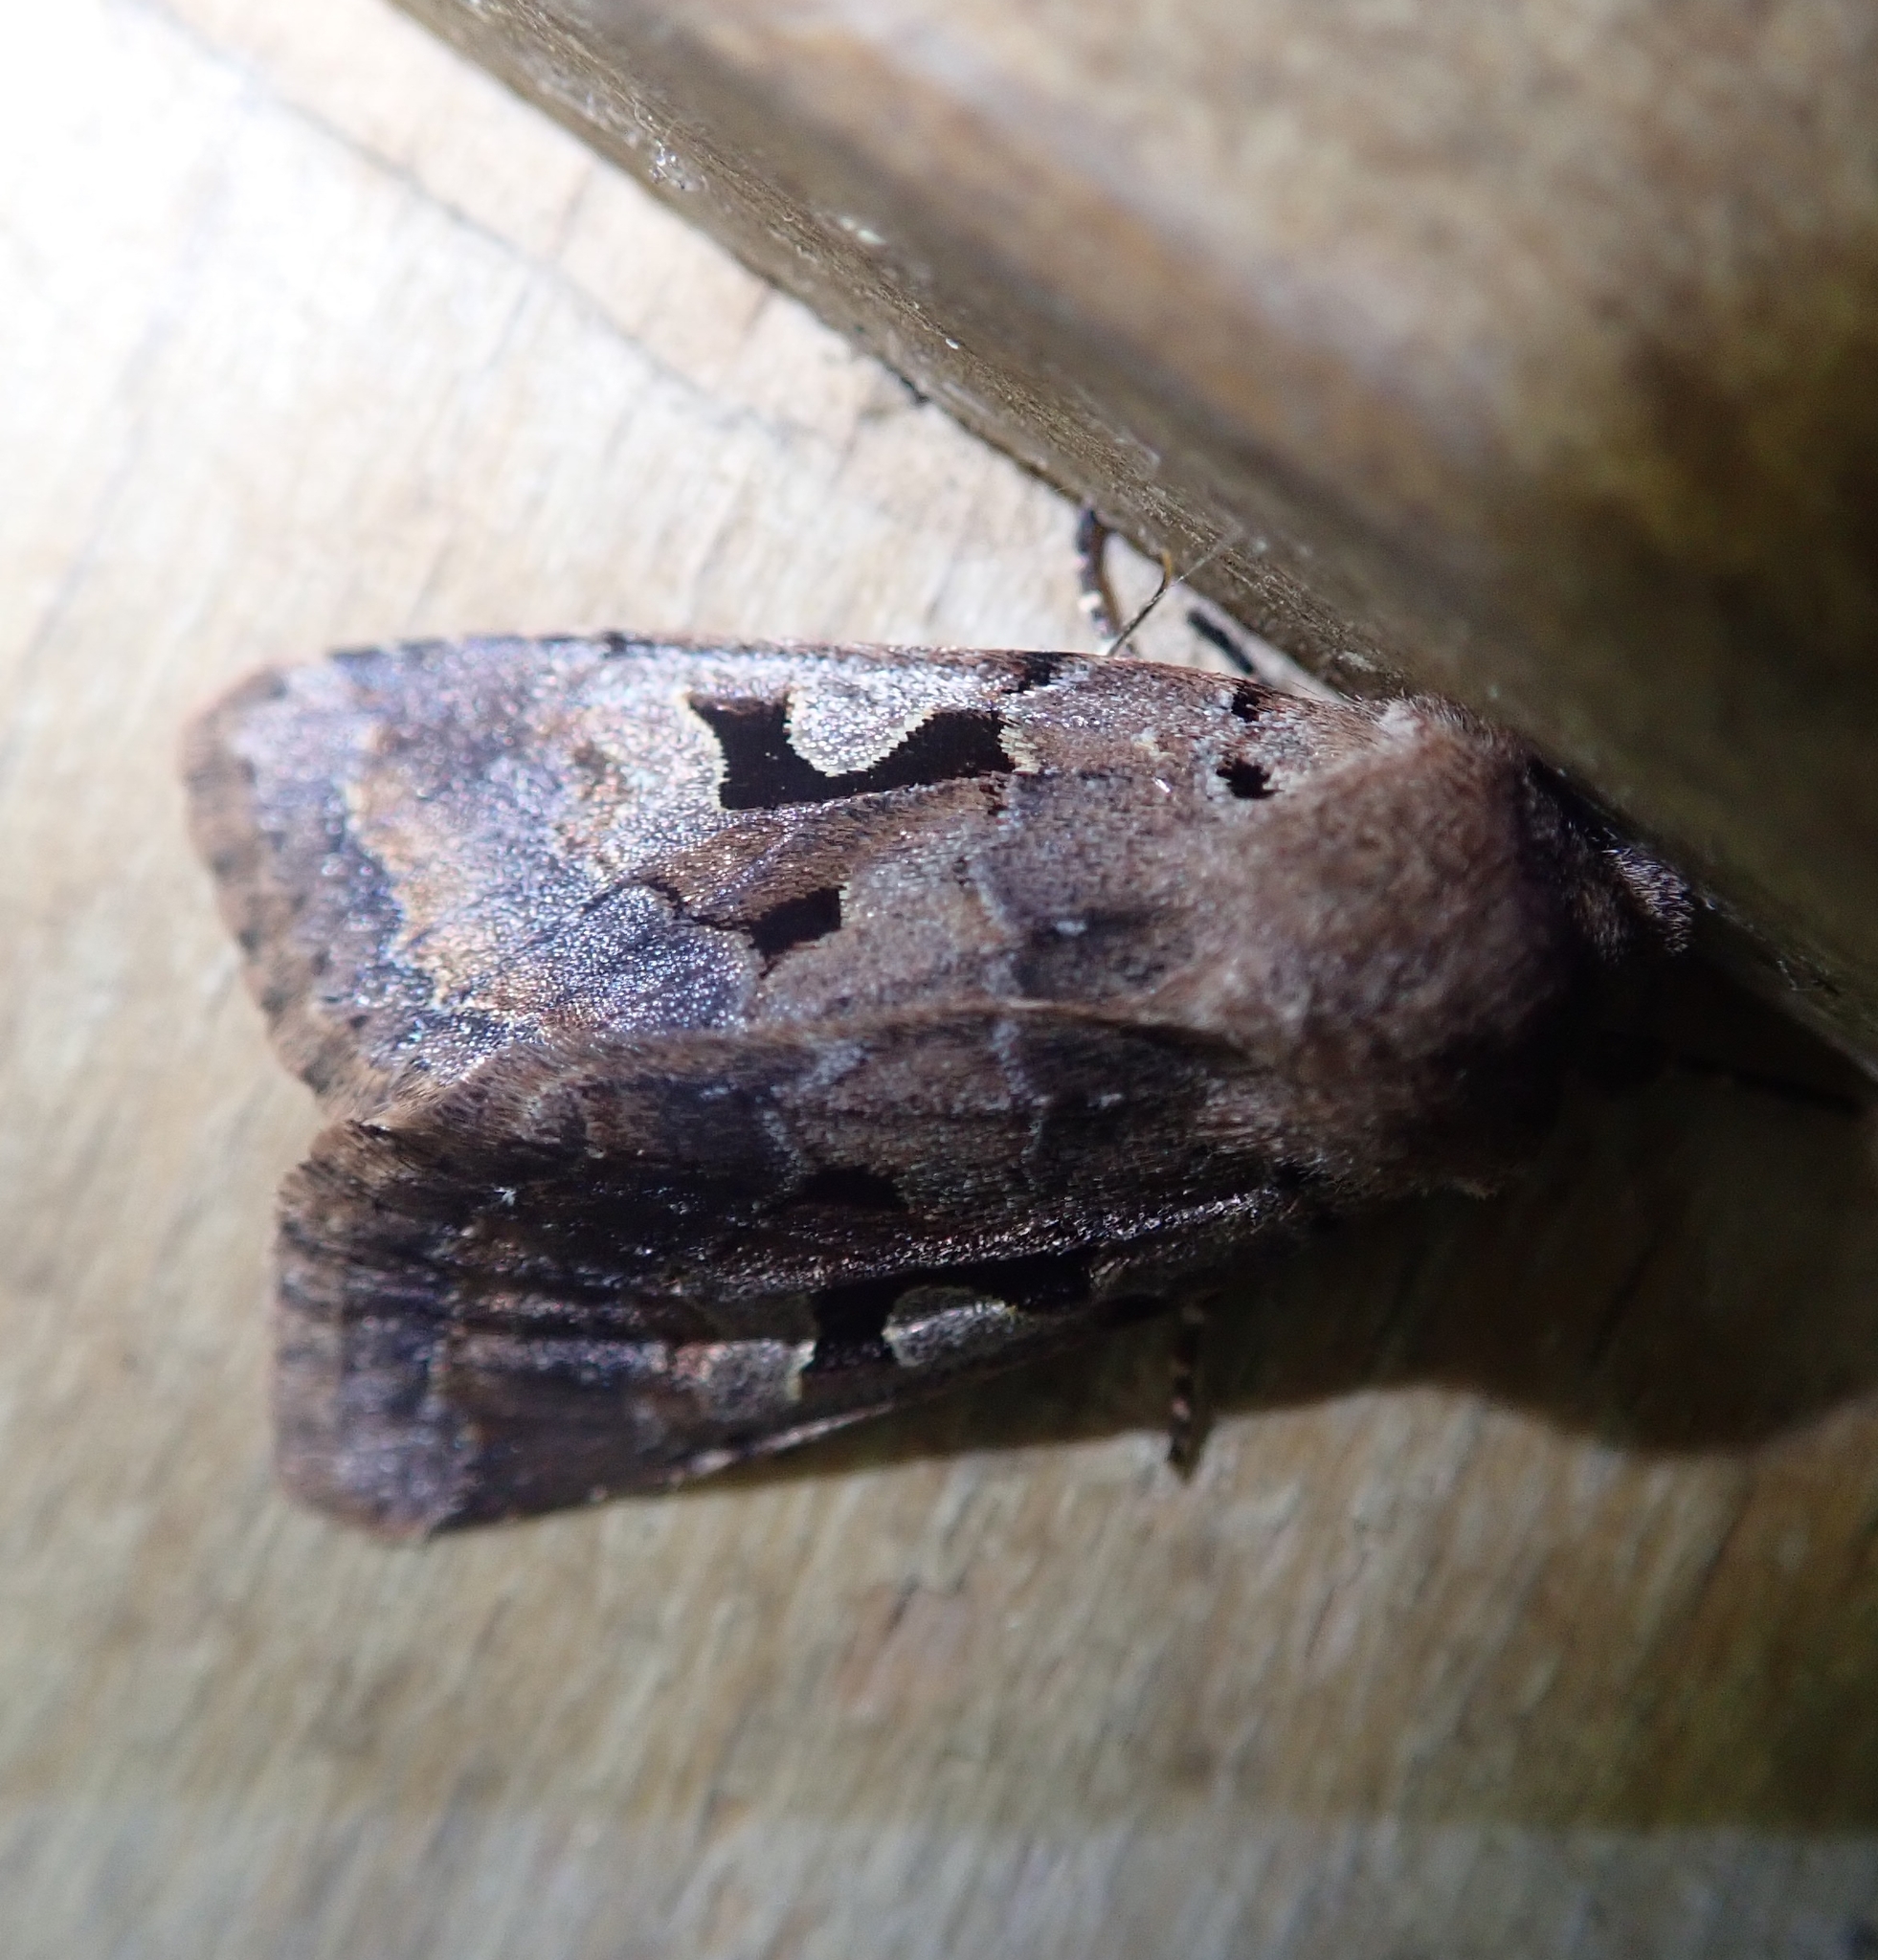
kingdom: Animalia
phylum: Arthropoda
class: Insecta
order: Lepidoptera
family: Noctuidae
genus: Orthosia
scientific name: Orthosia gothica
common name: Hebrew character
